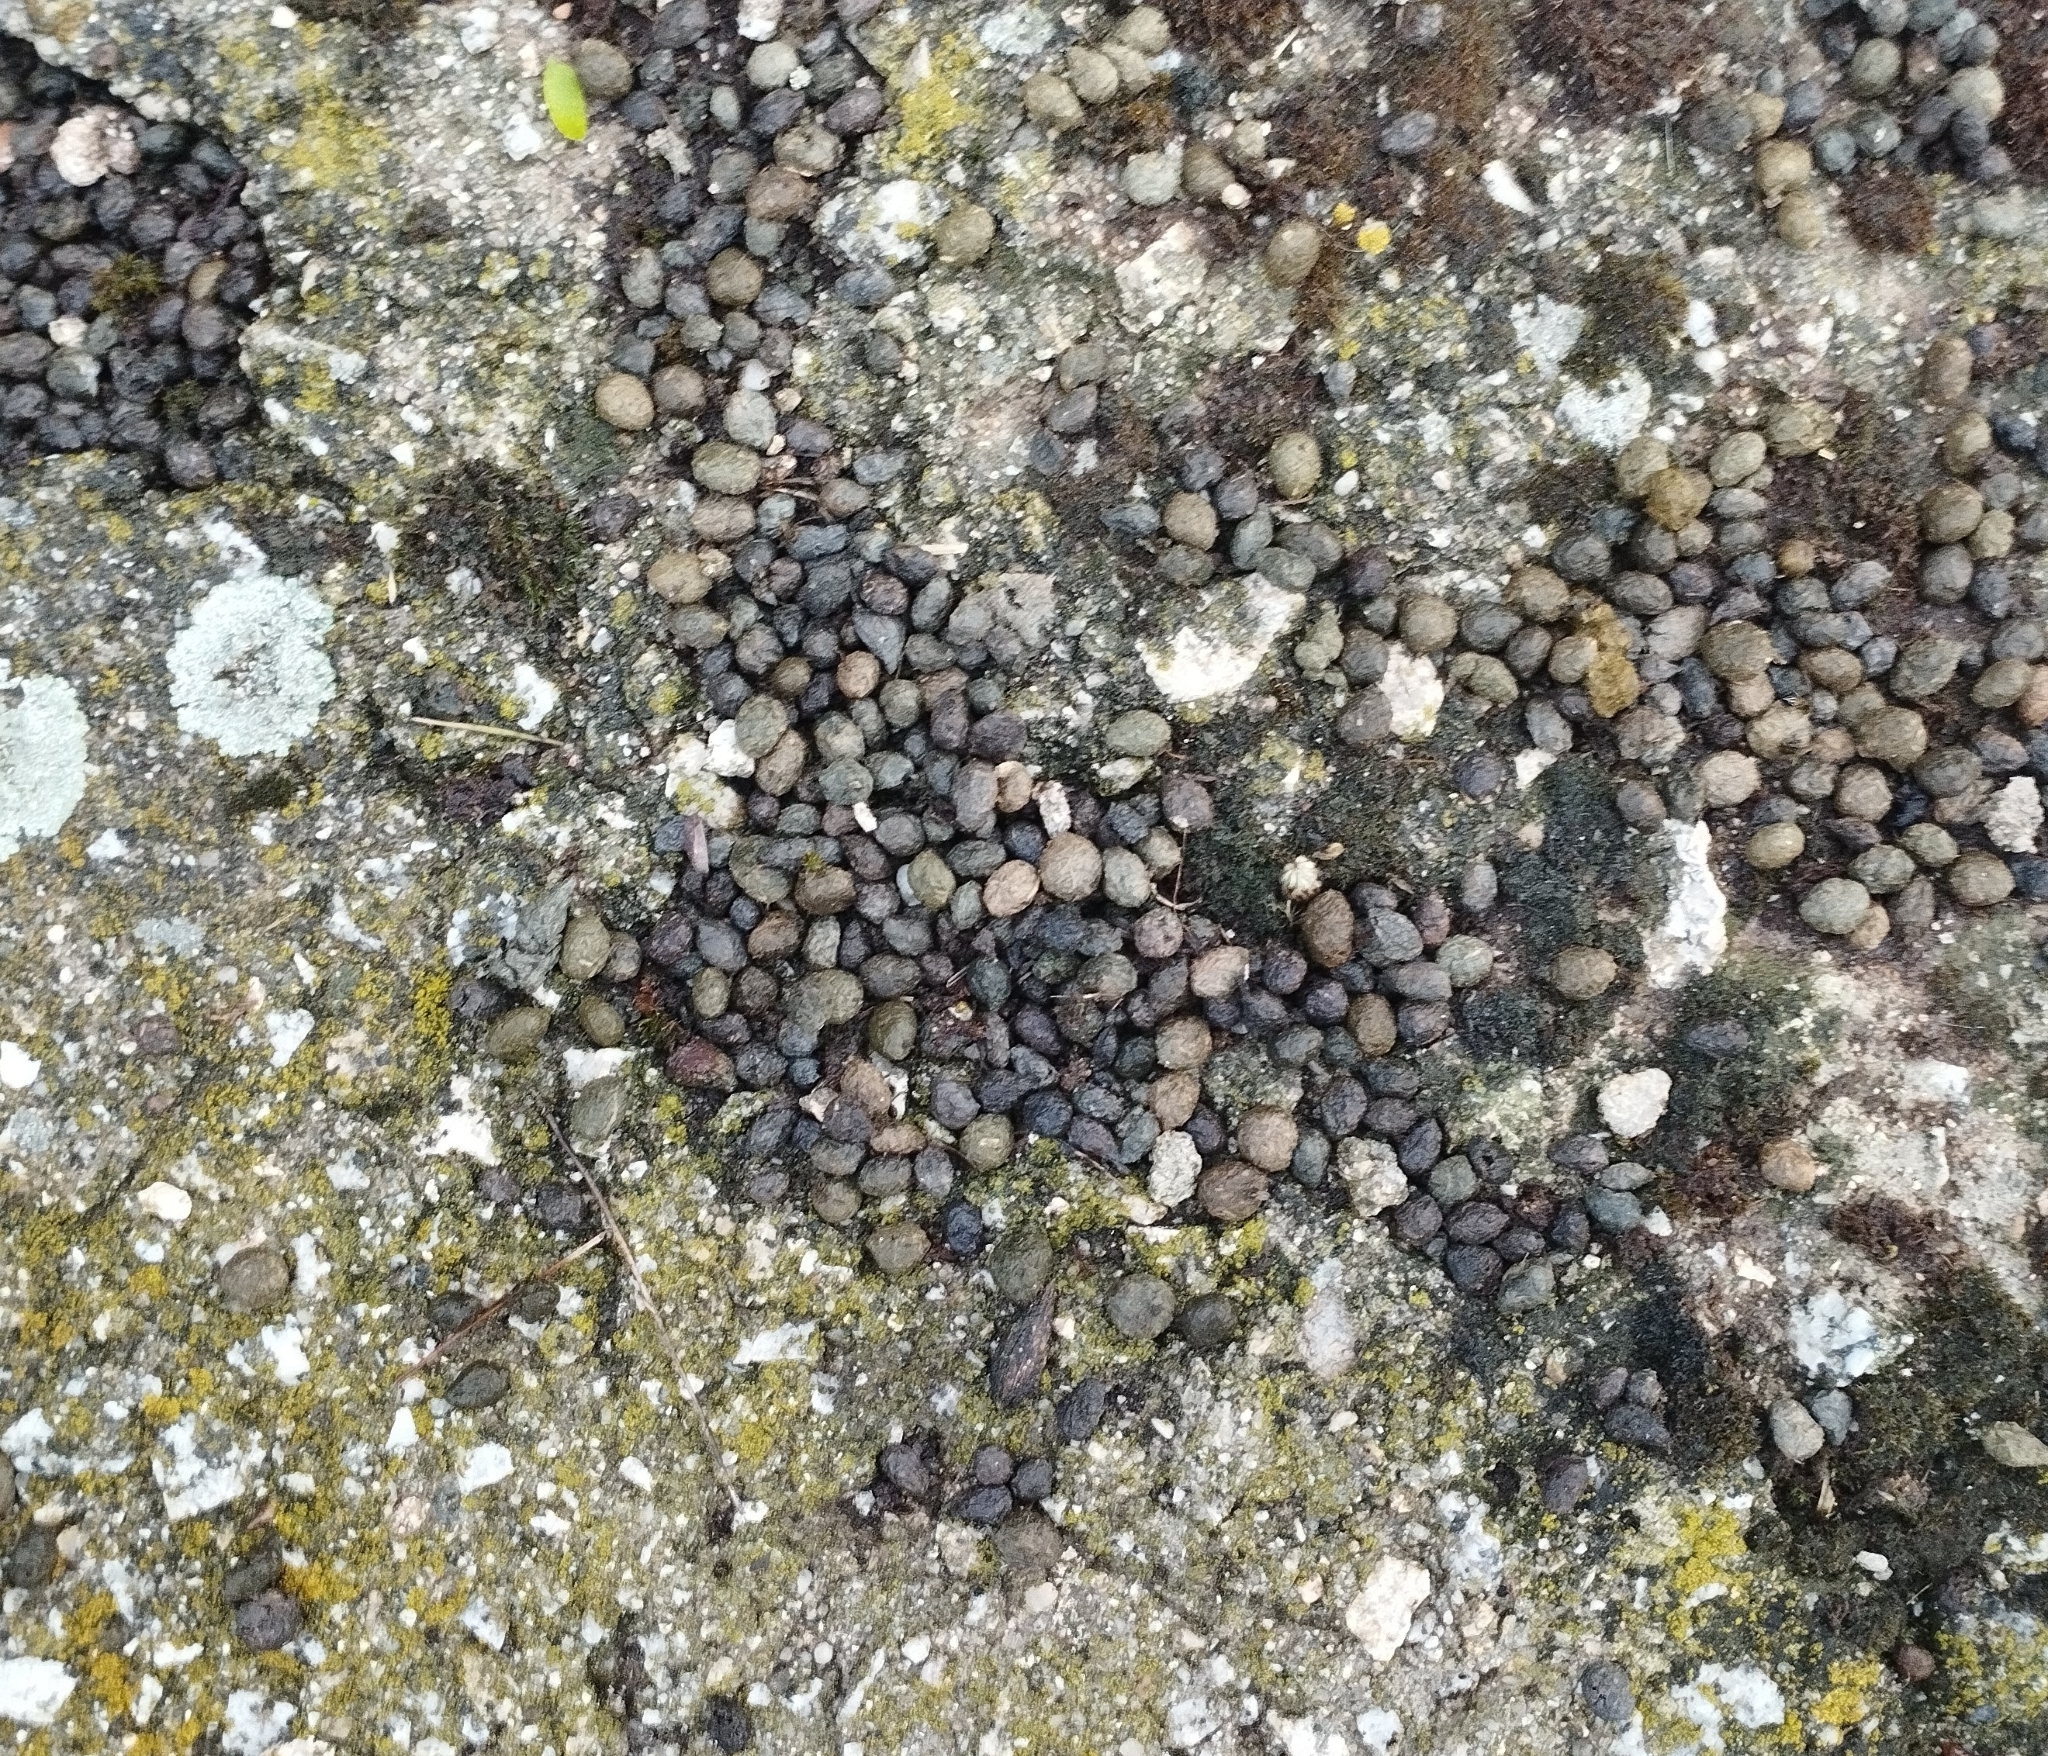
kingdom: Animalia
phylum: Chordata
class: Mammalia
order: Lagomorpha
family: Leporidae
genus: Oryctolagus
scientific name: Oryctolagus cuniculus
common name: European rabbit
